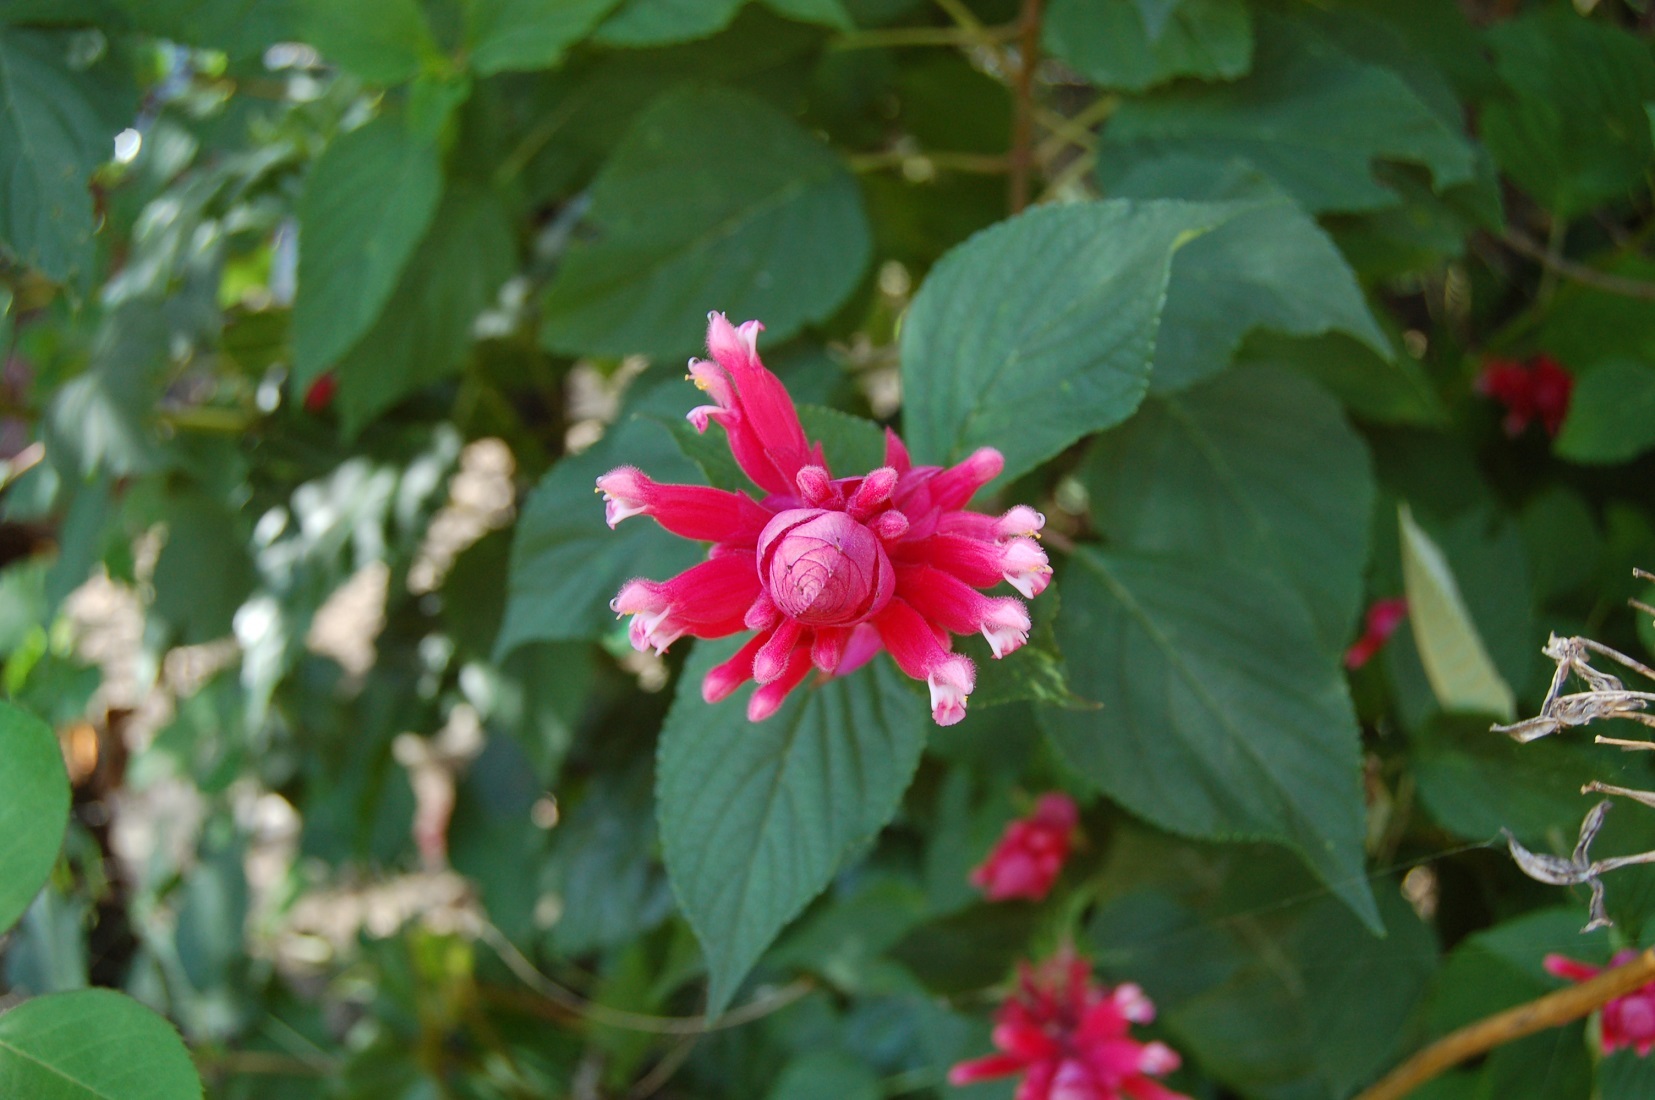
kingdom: Plantae
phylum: Tracheophyta
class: Magnoliopsida
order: Lamiales
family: Lamiaceae
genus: Salvia
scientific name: Salvia wagneriana
